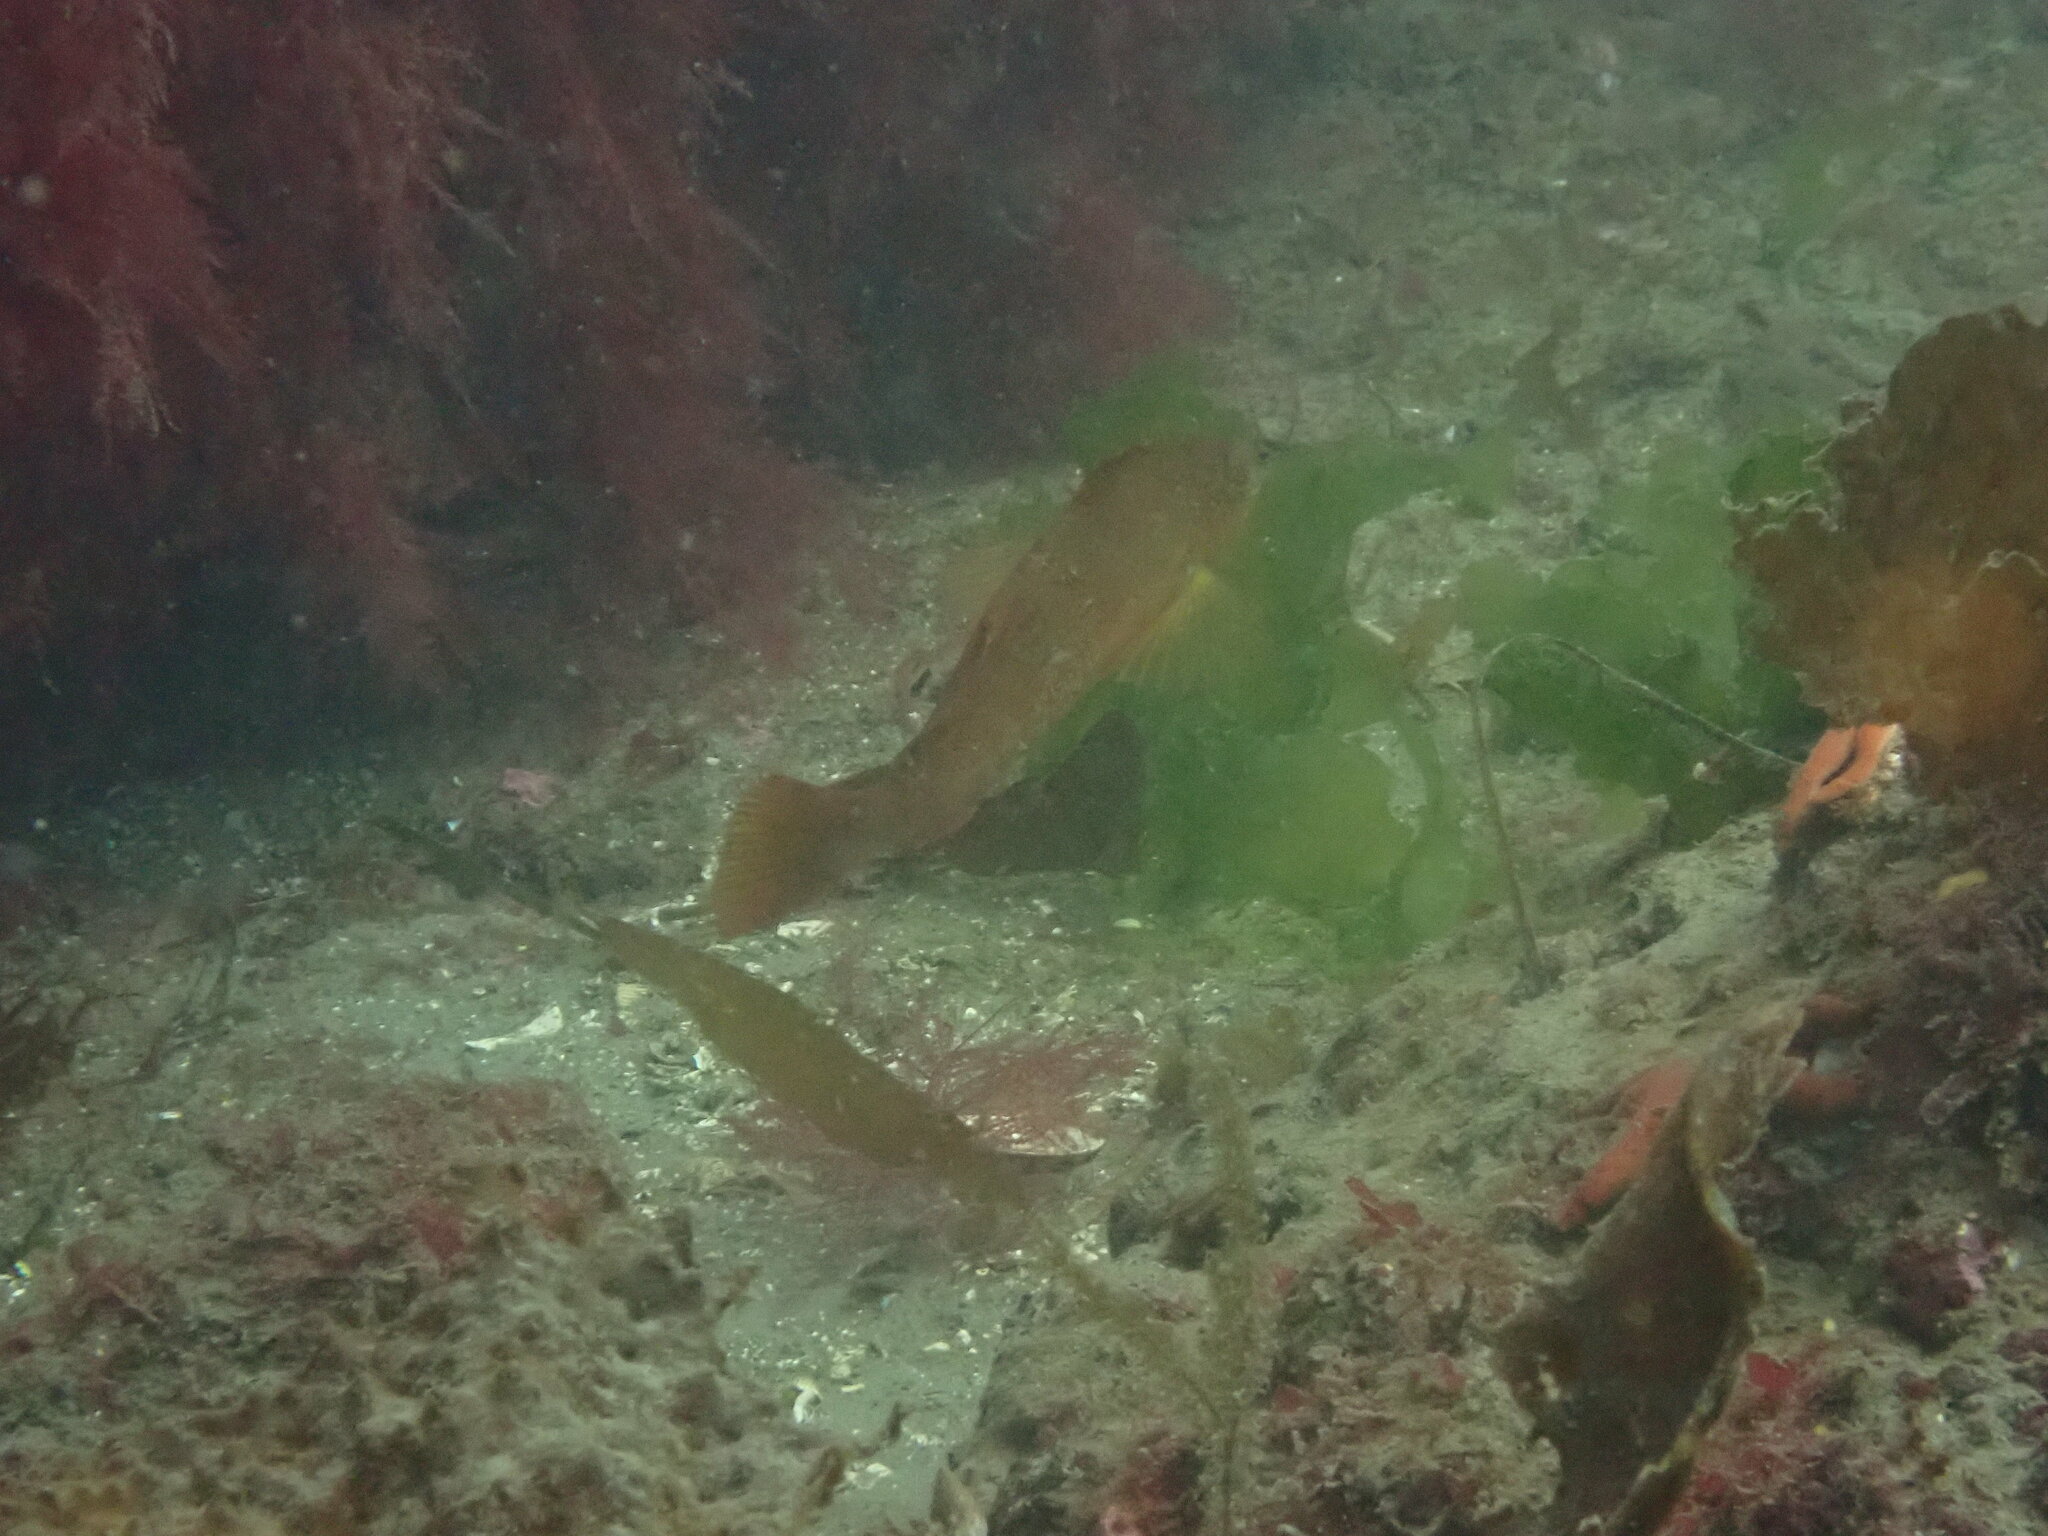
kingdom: Animalia
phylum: Chordata
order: Scorpaeniformes
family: Hexagrammidae
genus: Hexagrammos
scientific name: Hexagrammos decagrammus
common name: Kelp greenling
